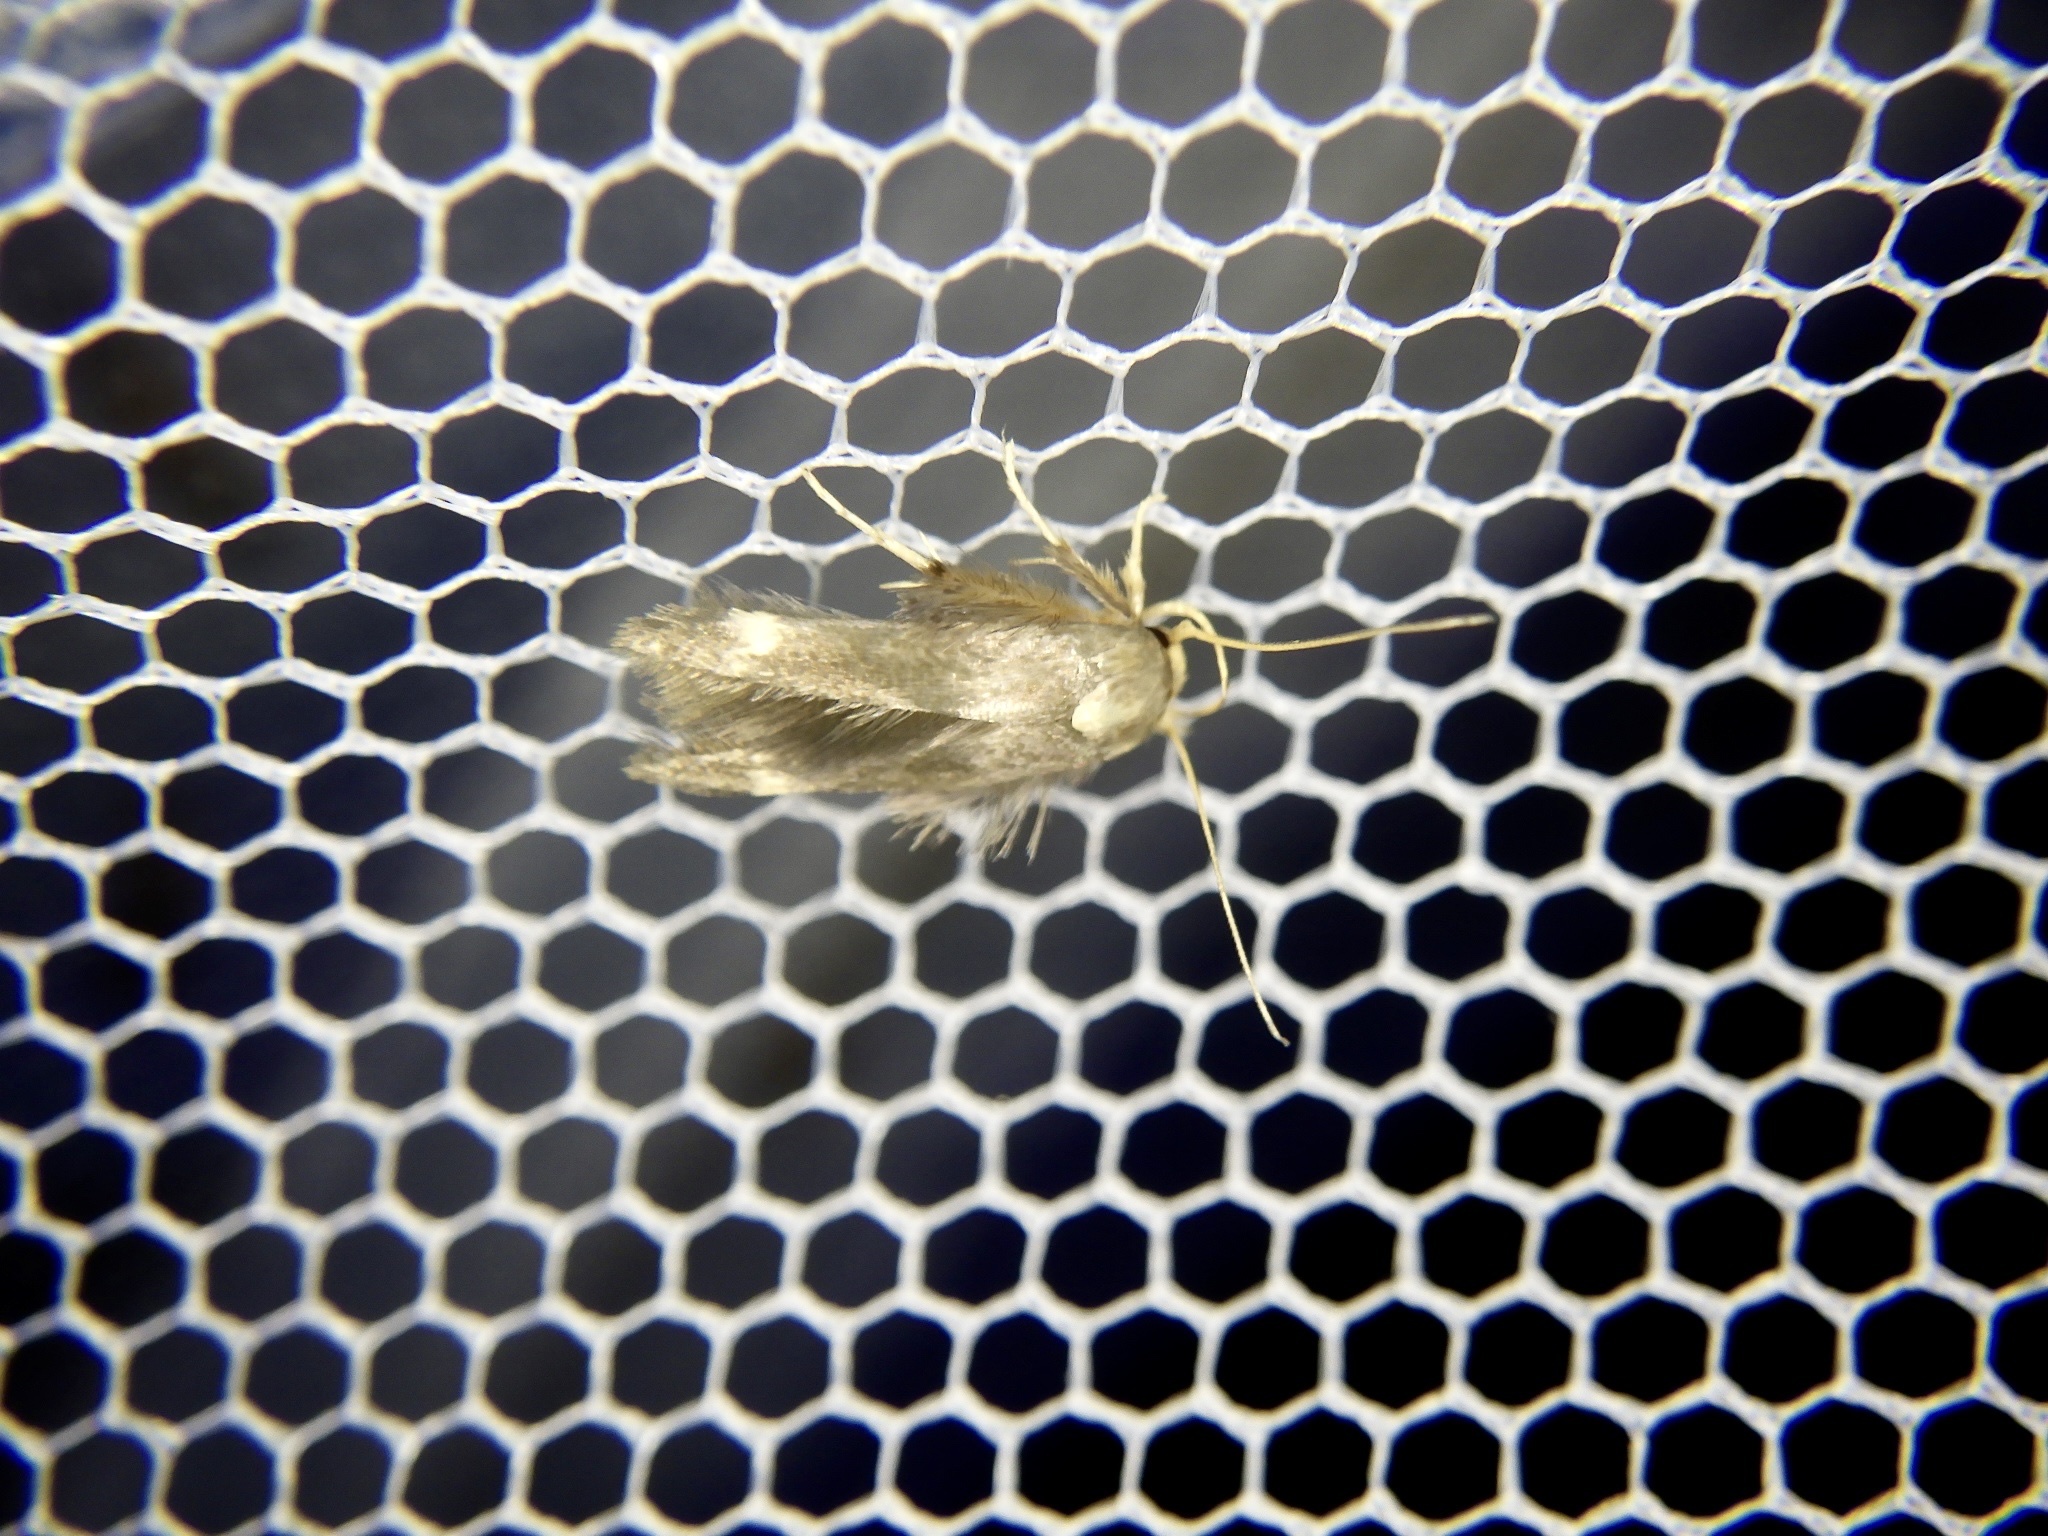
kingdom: Animalia
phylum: Arthropoda
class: Insecta
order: Lepidoptera
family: Stathmopodidae
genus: Stathmopoda
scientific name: Stathmopoda masinissa
